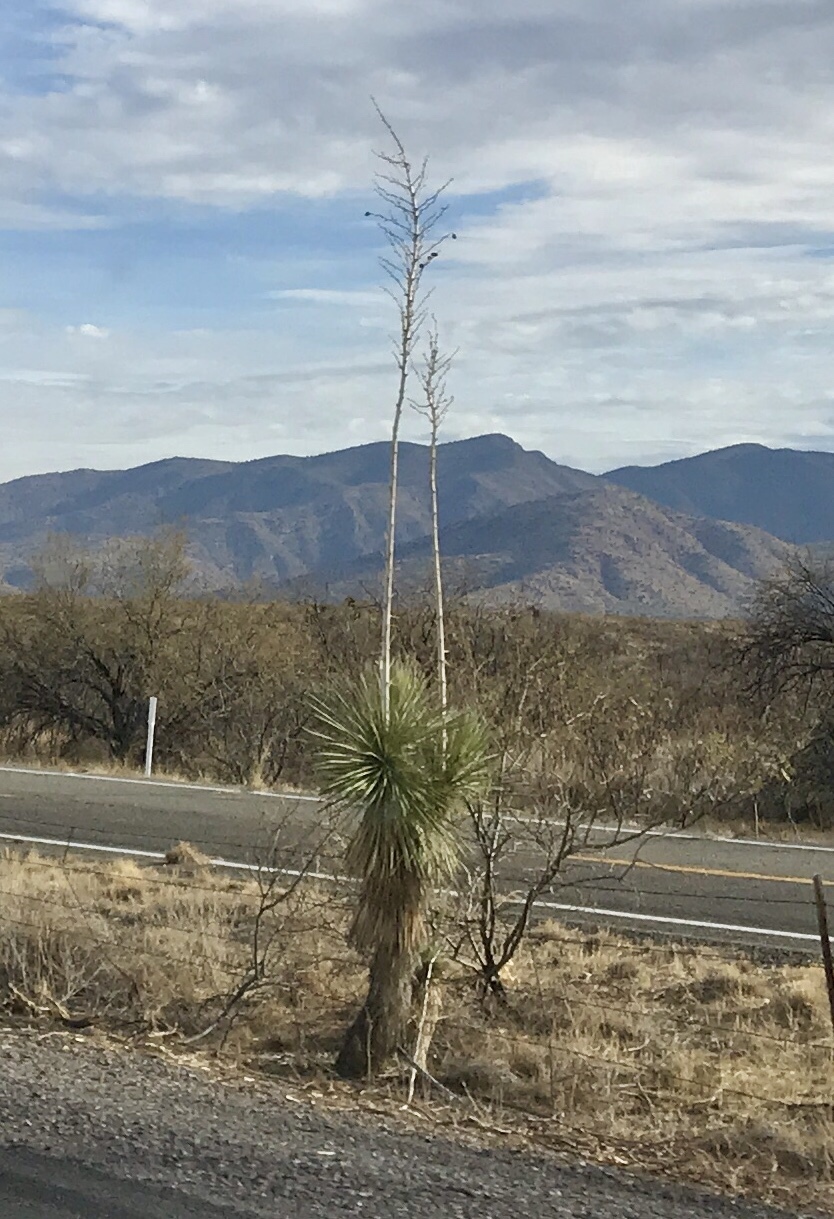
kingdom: Plantae
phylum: Tracheophyta
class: Liliopsida
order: Asparagales
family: Asparagaceae
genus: Yucca
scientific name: Yucca elata
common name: Palmella
